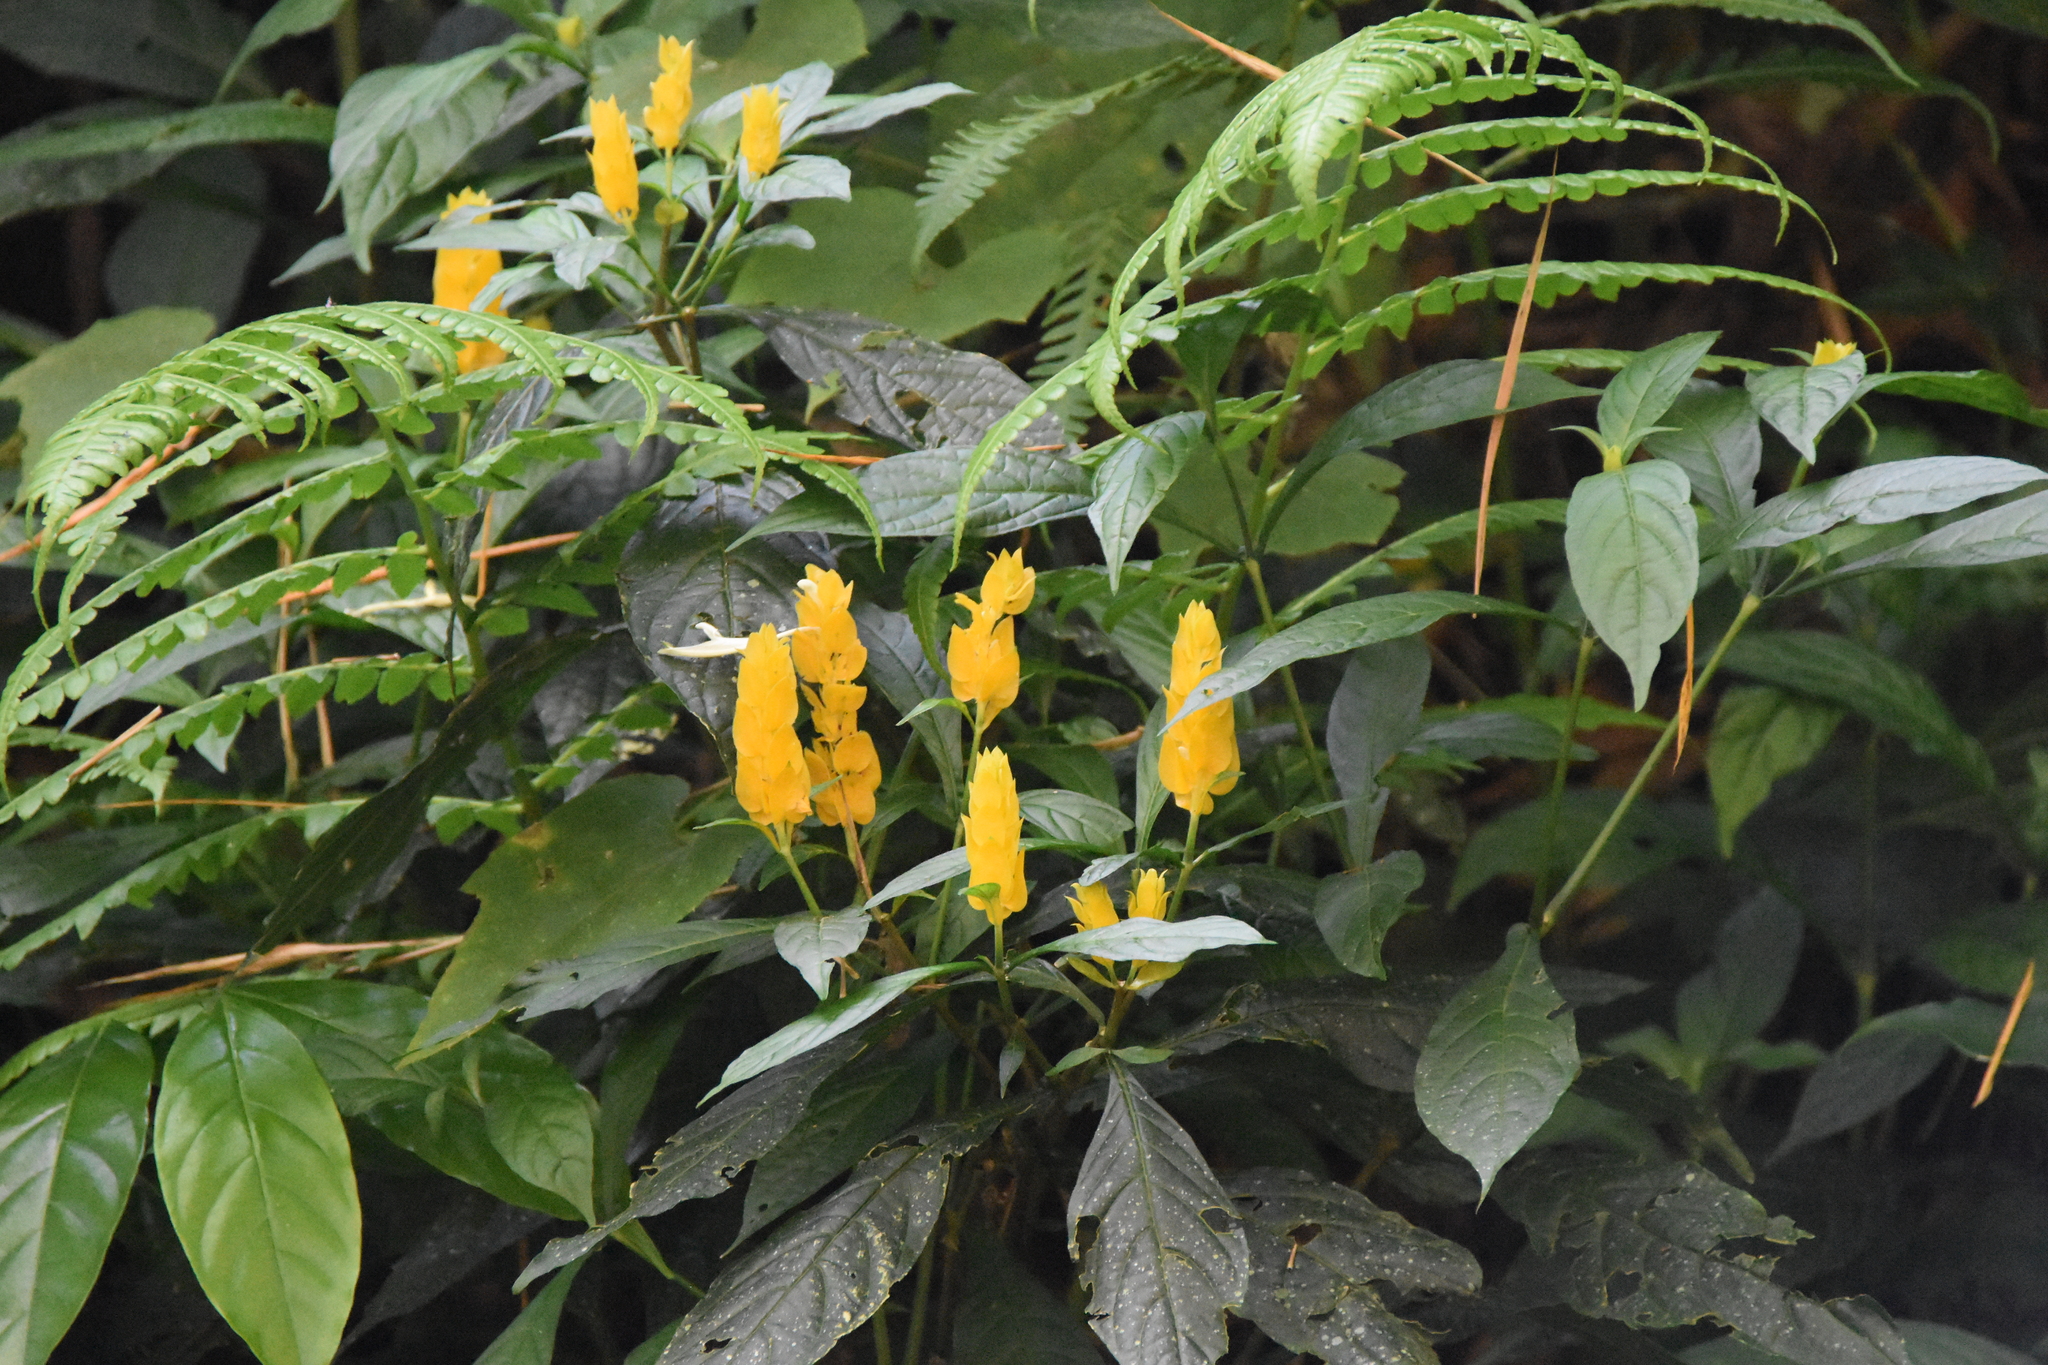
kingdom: Plantae
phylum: Tracheophyta
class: Magnoliopsida
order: Lamiales
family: Acanthaceae
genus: Pachystachys
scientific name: Pachystachys lutea
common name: Golden shrimp-plant
